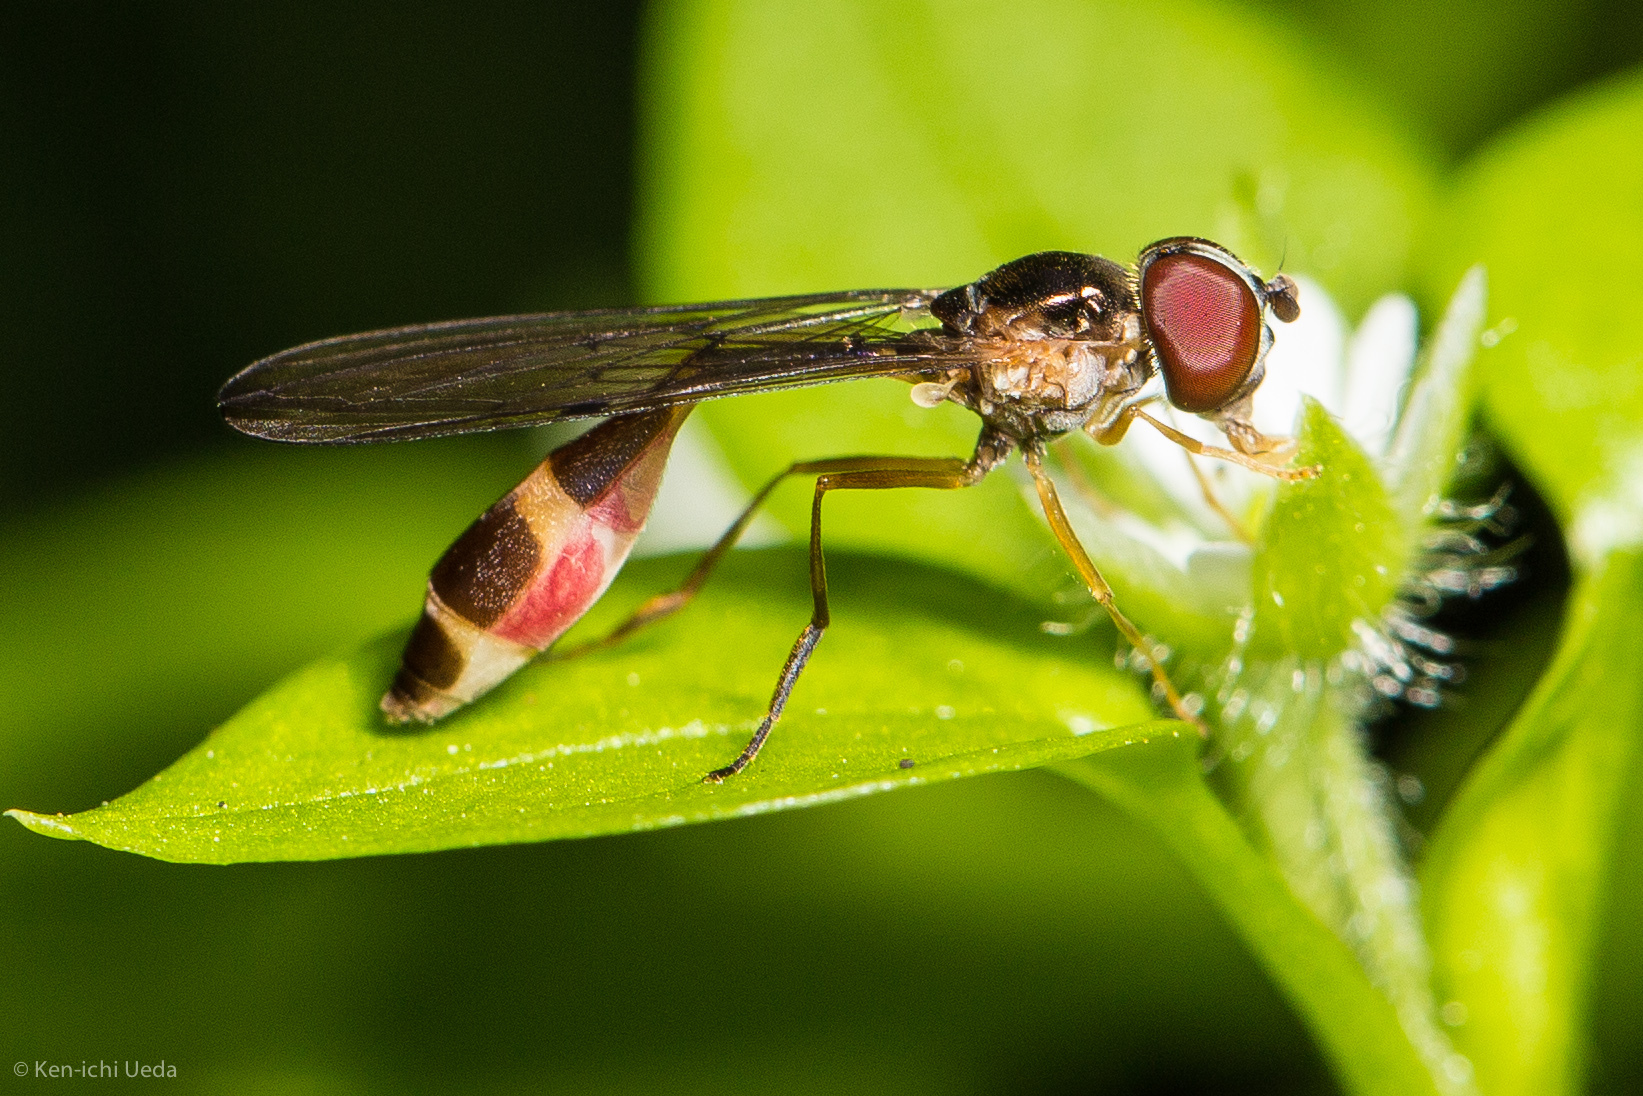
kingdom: Animalia
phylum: Arthropoda
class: Insecta
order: Diptera
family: Syrphidae
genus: Baccha
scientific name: Baccha cognata
